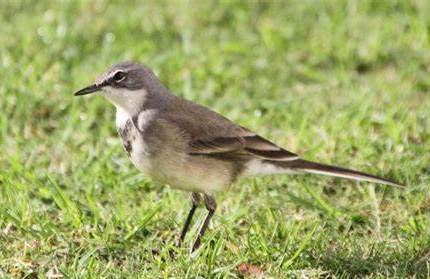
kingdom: Animalia
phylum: Chordata
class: Aves
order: Passeriformes
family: Motacillidae
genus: Motacilla
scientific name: Motacilla capensis
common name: Cape wagtail
